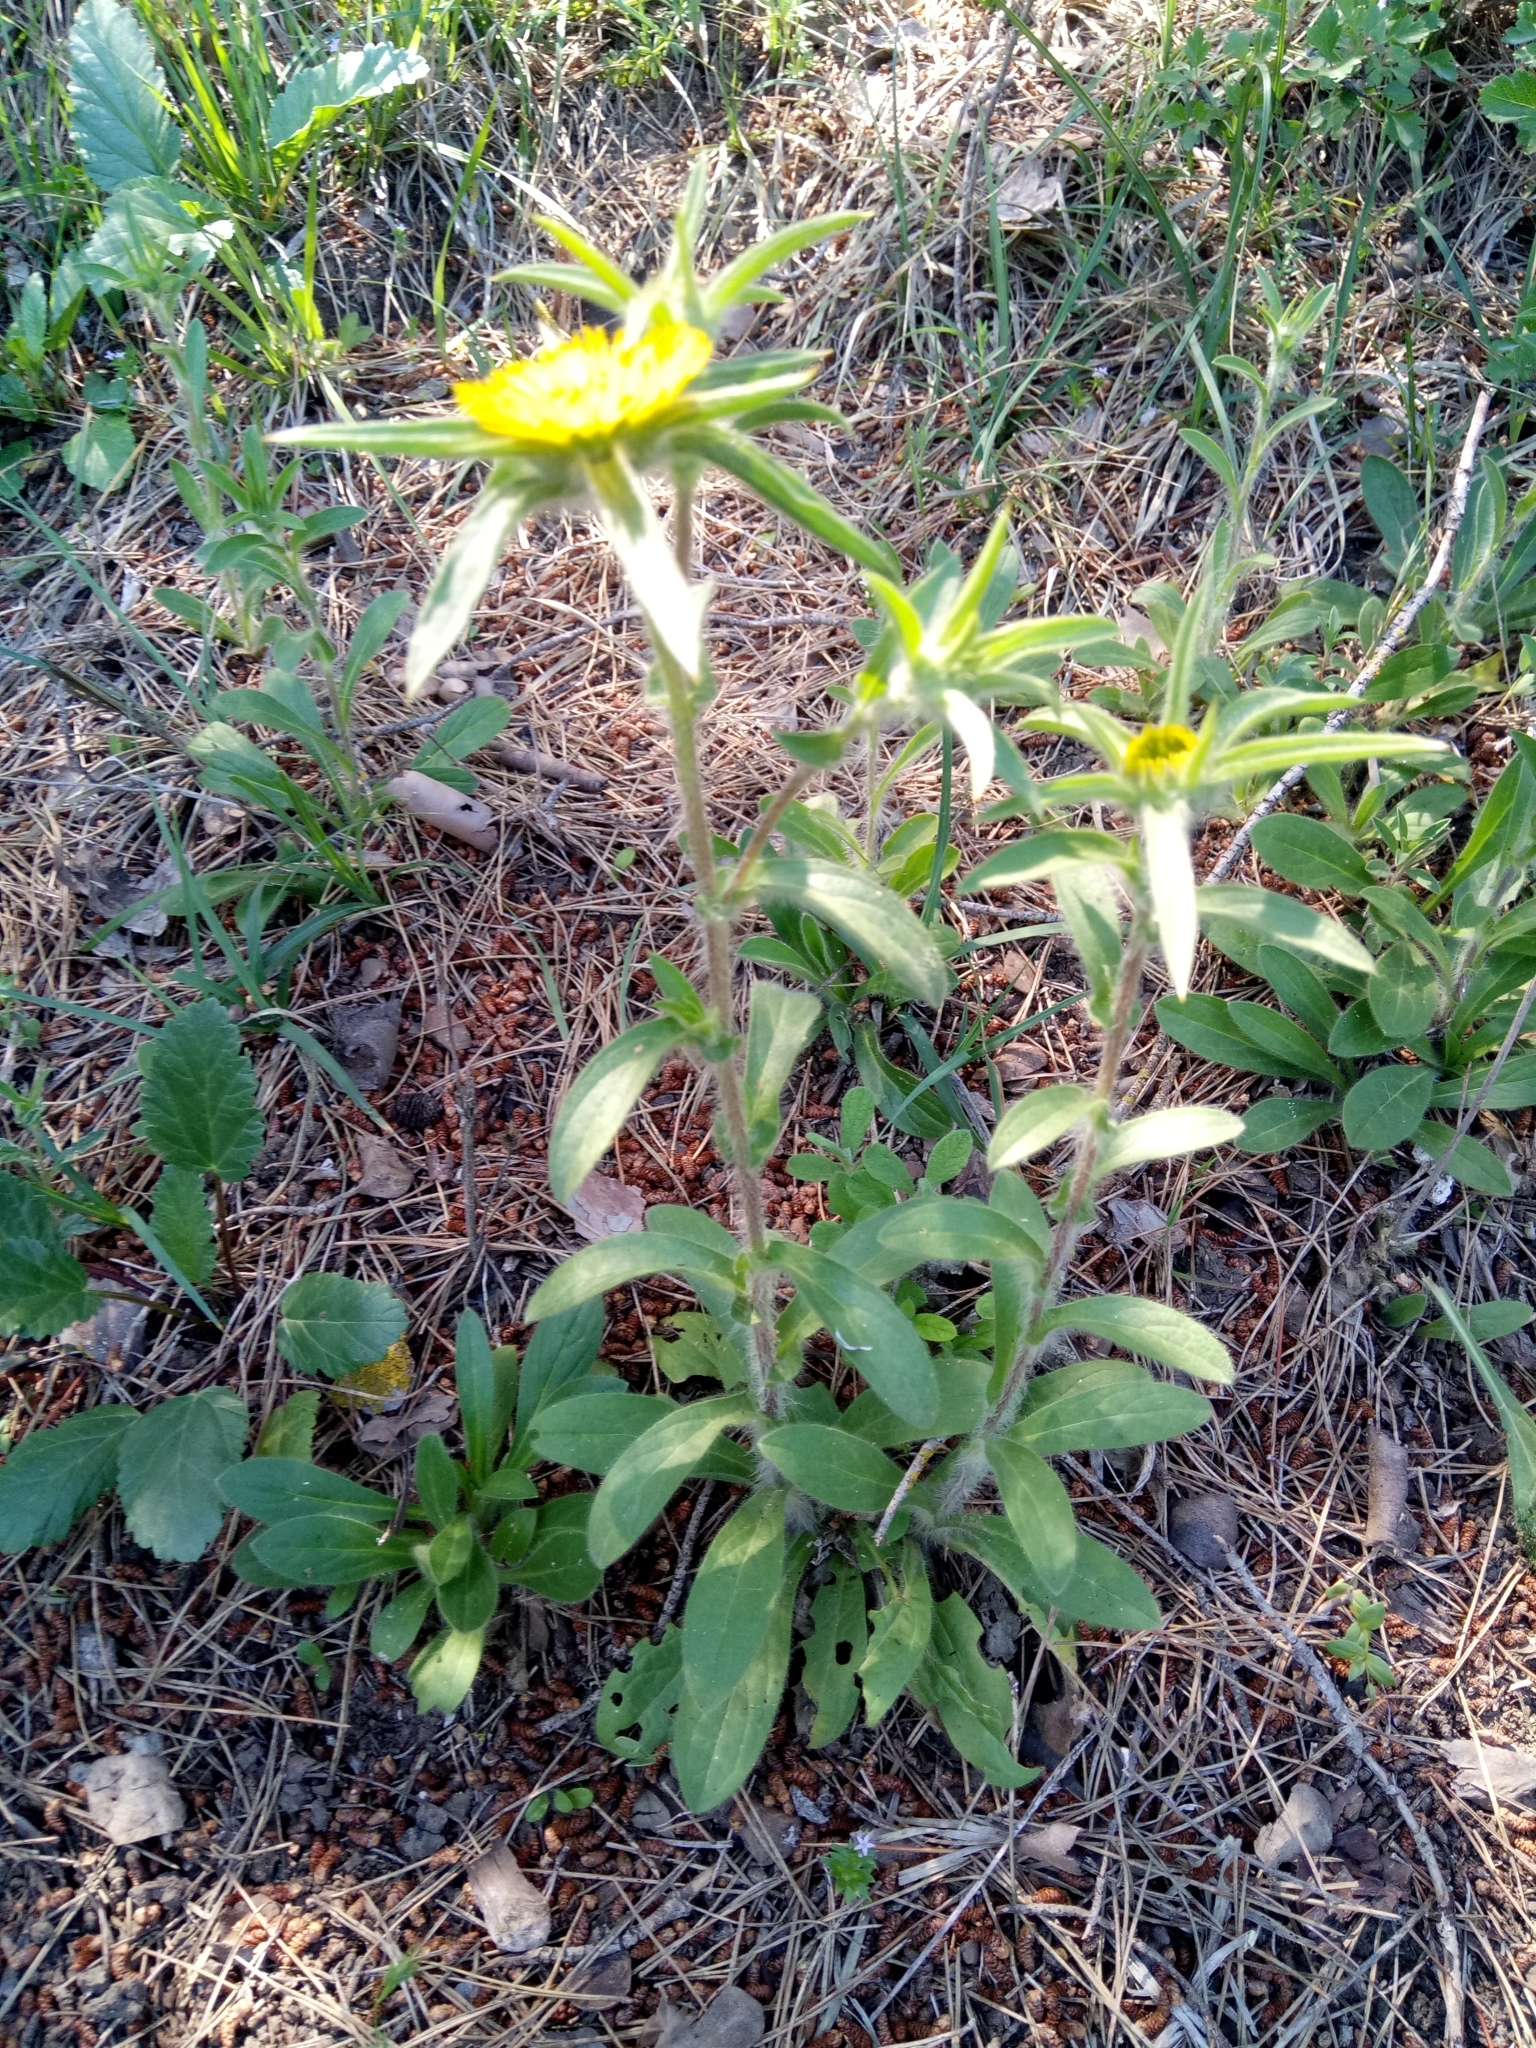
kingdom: Plantae
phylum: Tracheophyta
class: Magnoliopsida
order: Asterales
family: Asteraceae
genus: Pallenis
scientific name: Pallenis spinosa
